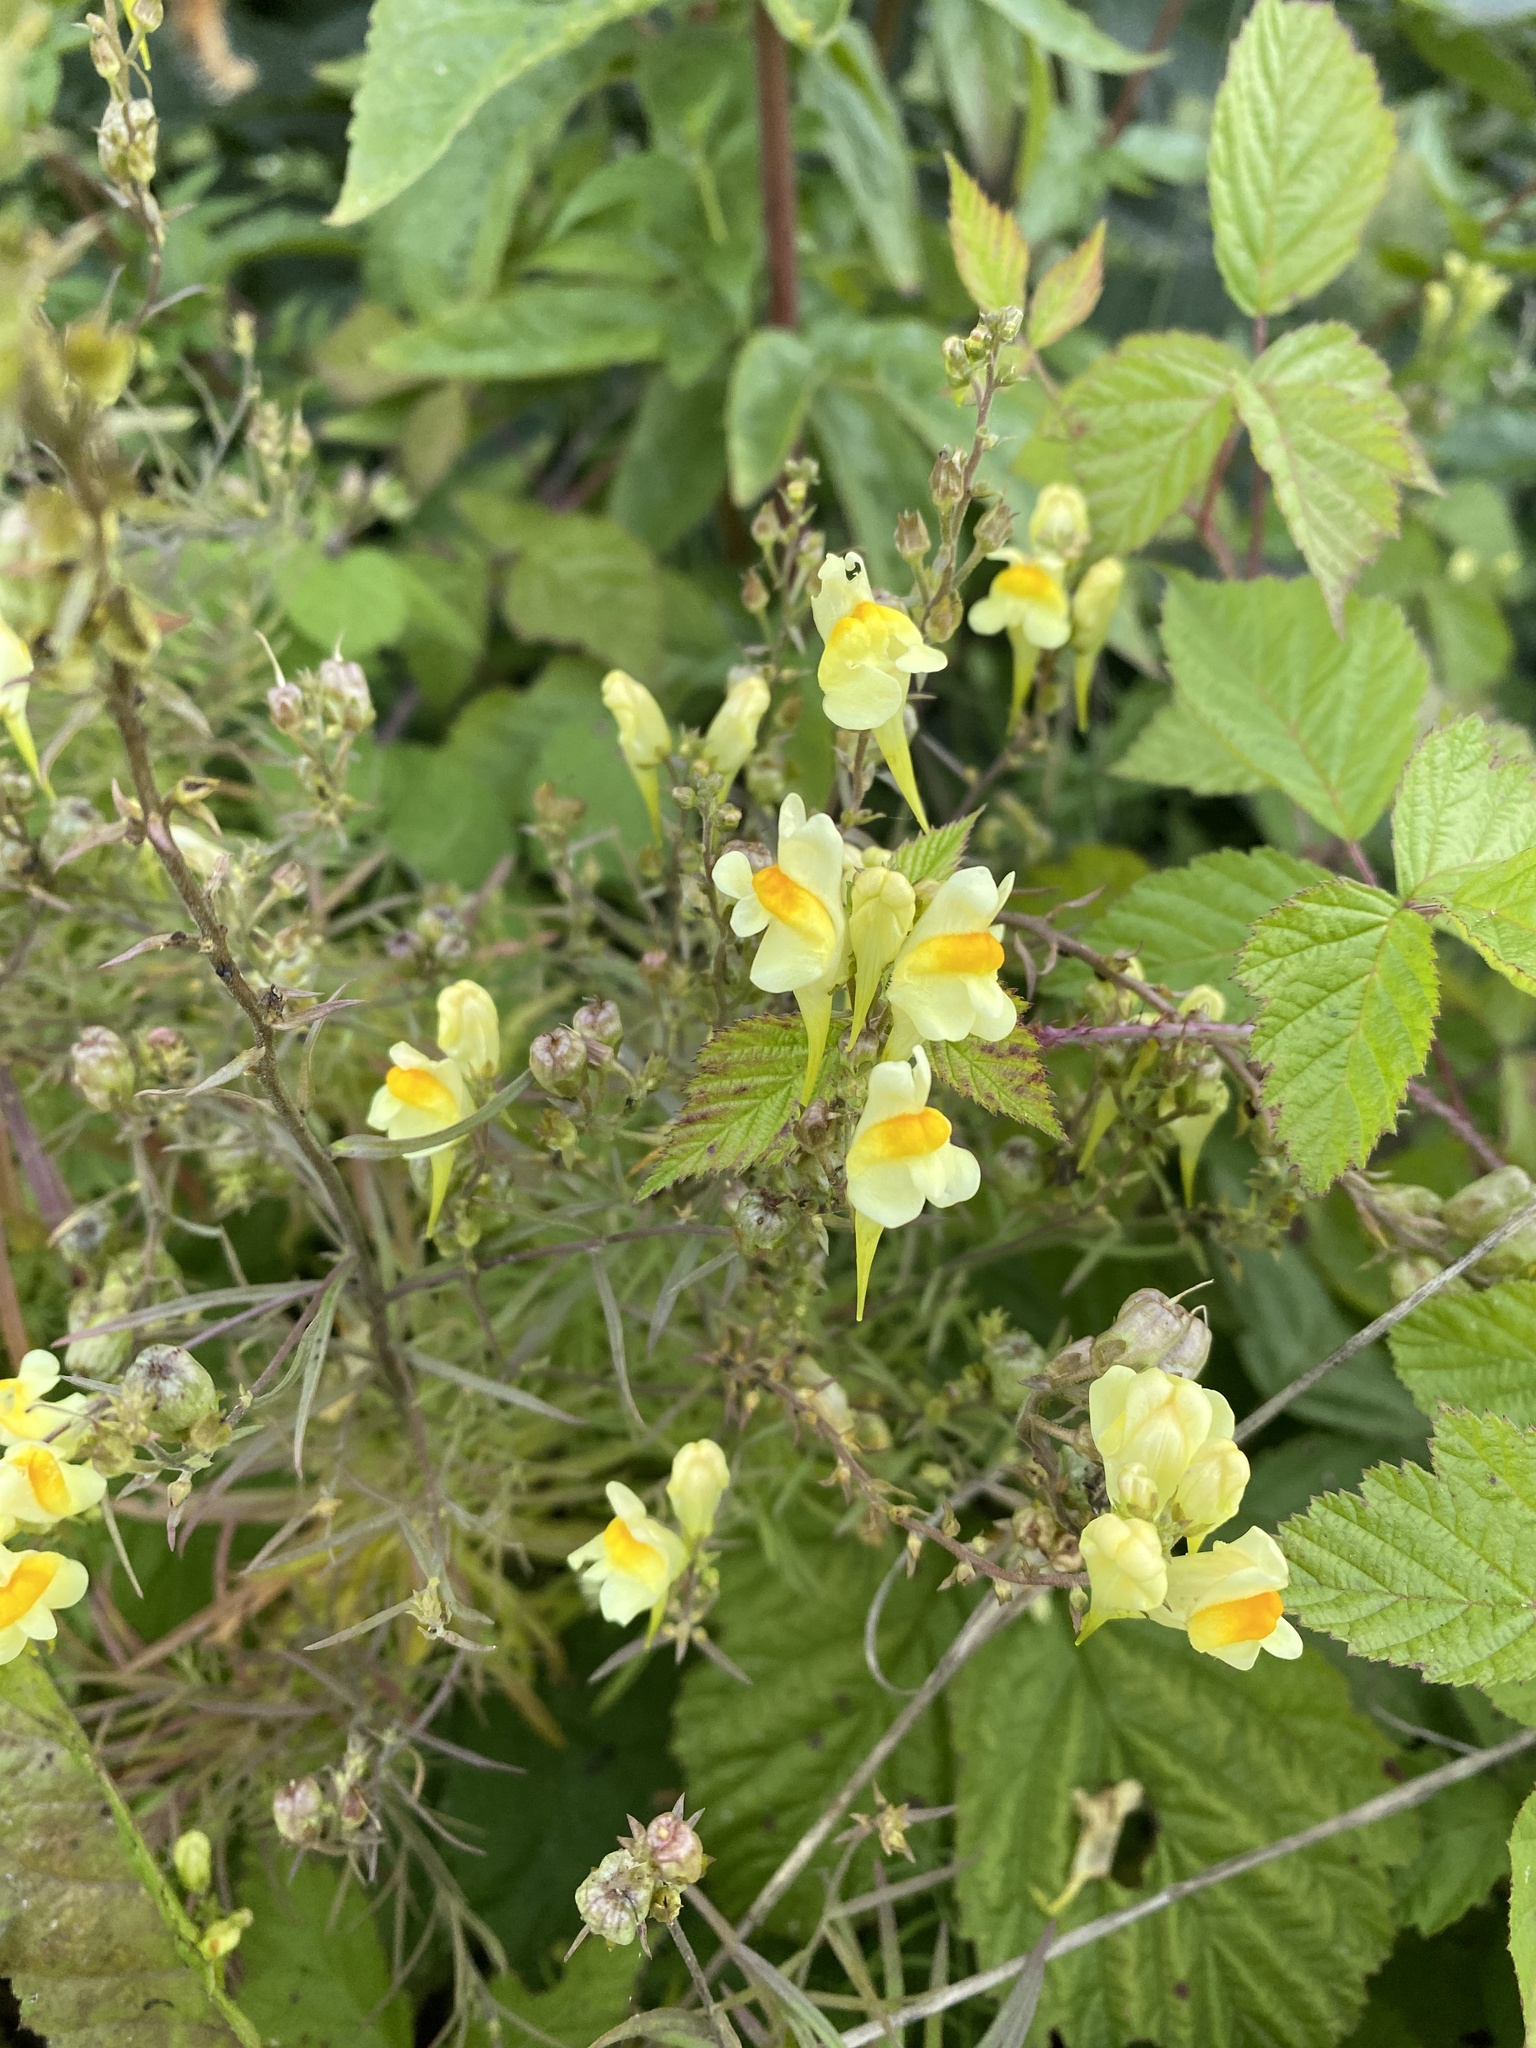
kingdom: Plantae
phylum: Tracheophyta
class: Magnoliopsida
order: Lamiales
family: Plantaginaceae
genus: Linaria
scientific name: Linaria vulgaris
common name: Butter and eggs
